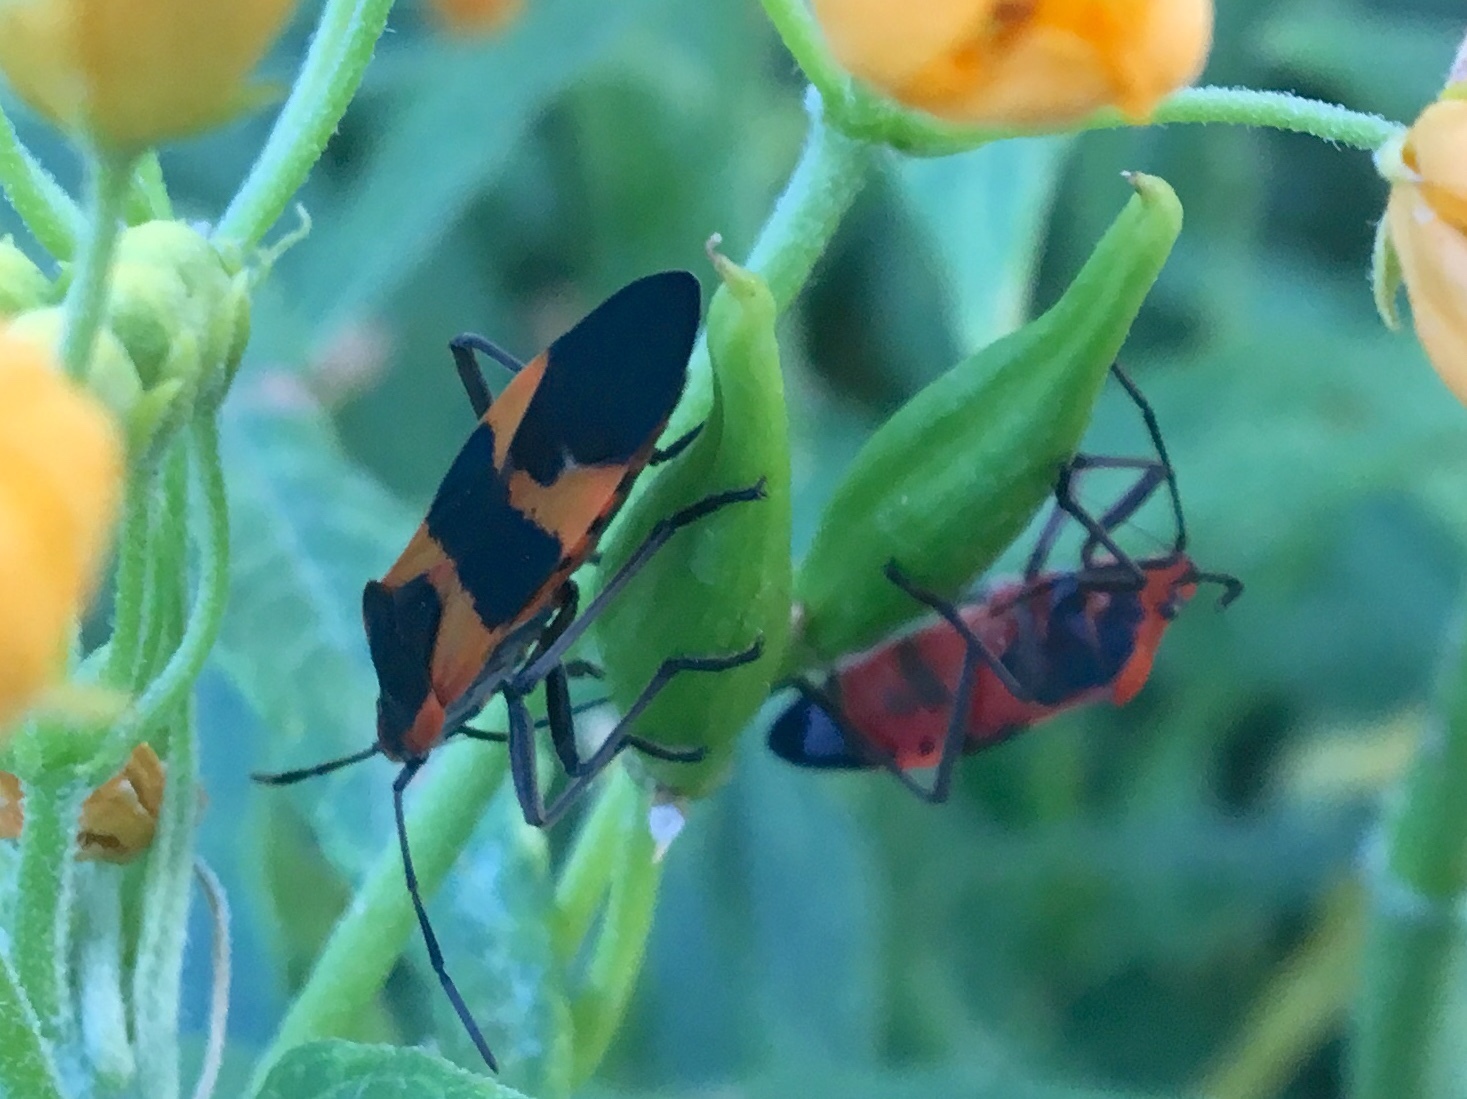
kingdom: Animalia
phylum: Arthropoda
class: Insecta
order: Hemiptera
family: Lygaeidae
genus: Oncopeltus
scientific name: Oncopeltus fasciatus
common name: Large milkweed bug
